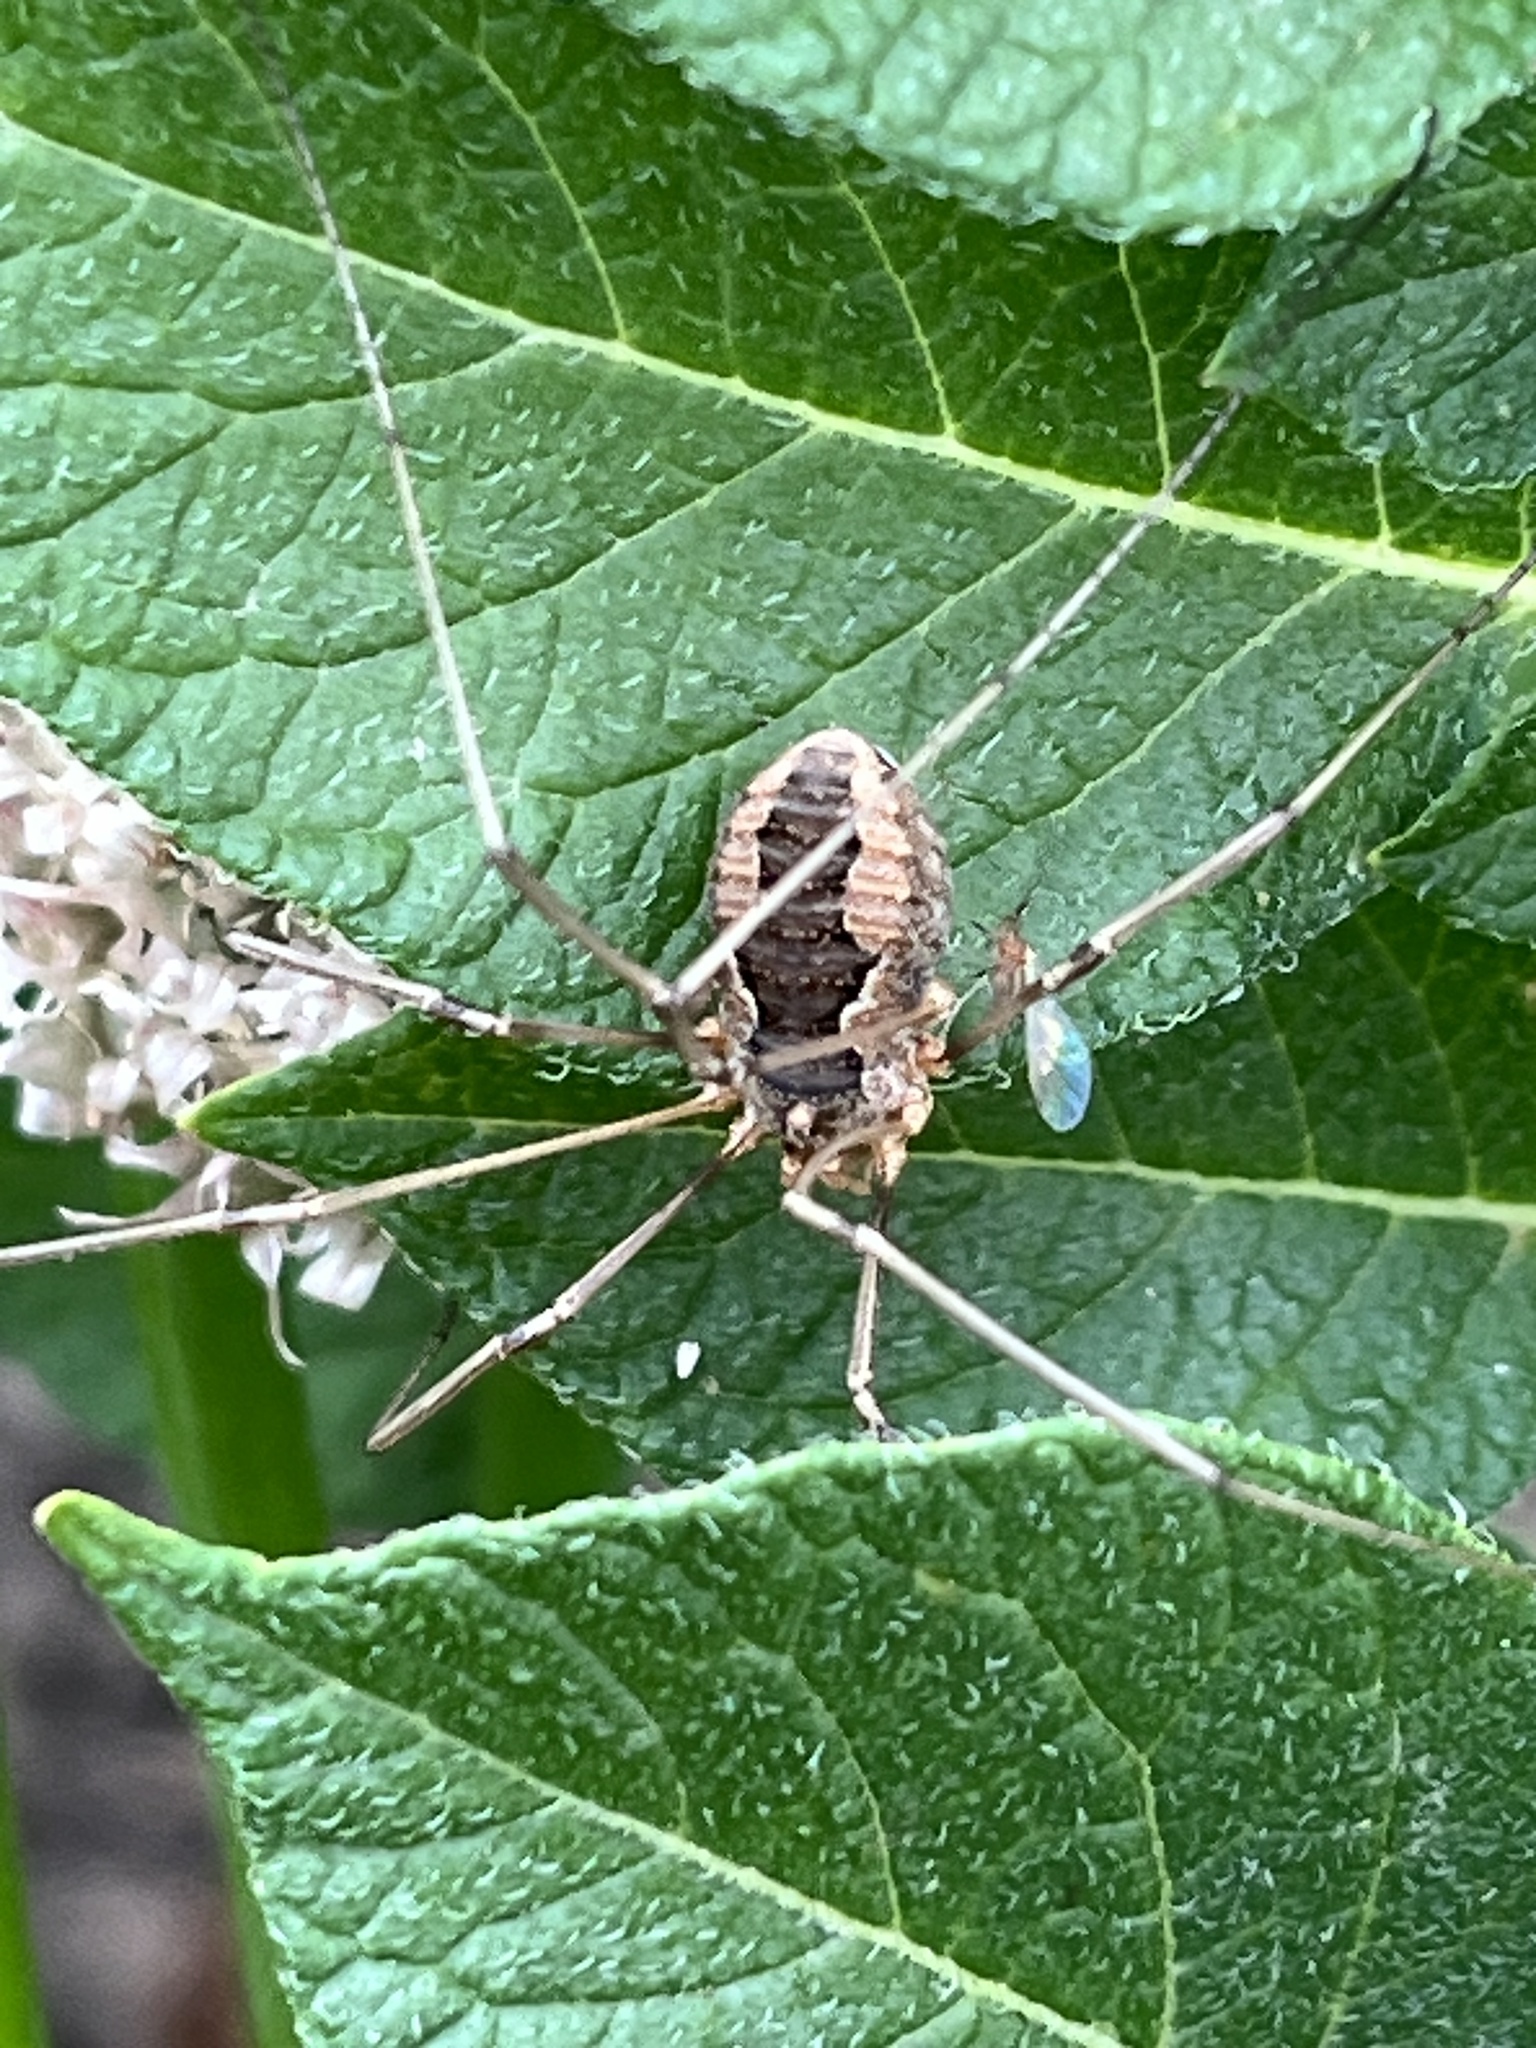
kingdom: Animalia
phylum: Arthropoda
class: Arachnida
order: Opiliones
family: Phalangiidae
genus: Phalangium
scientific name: Phalangium opilio
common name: Daddy longleg
